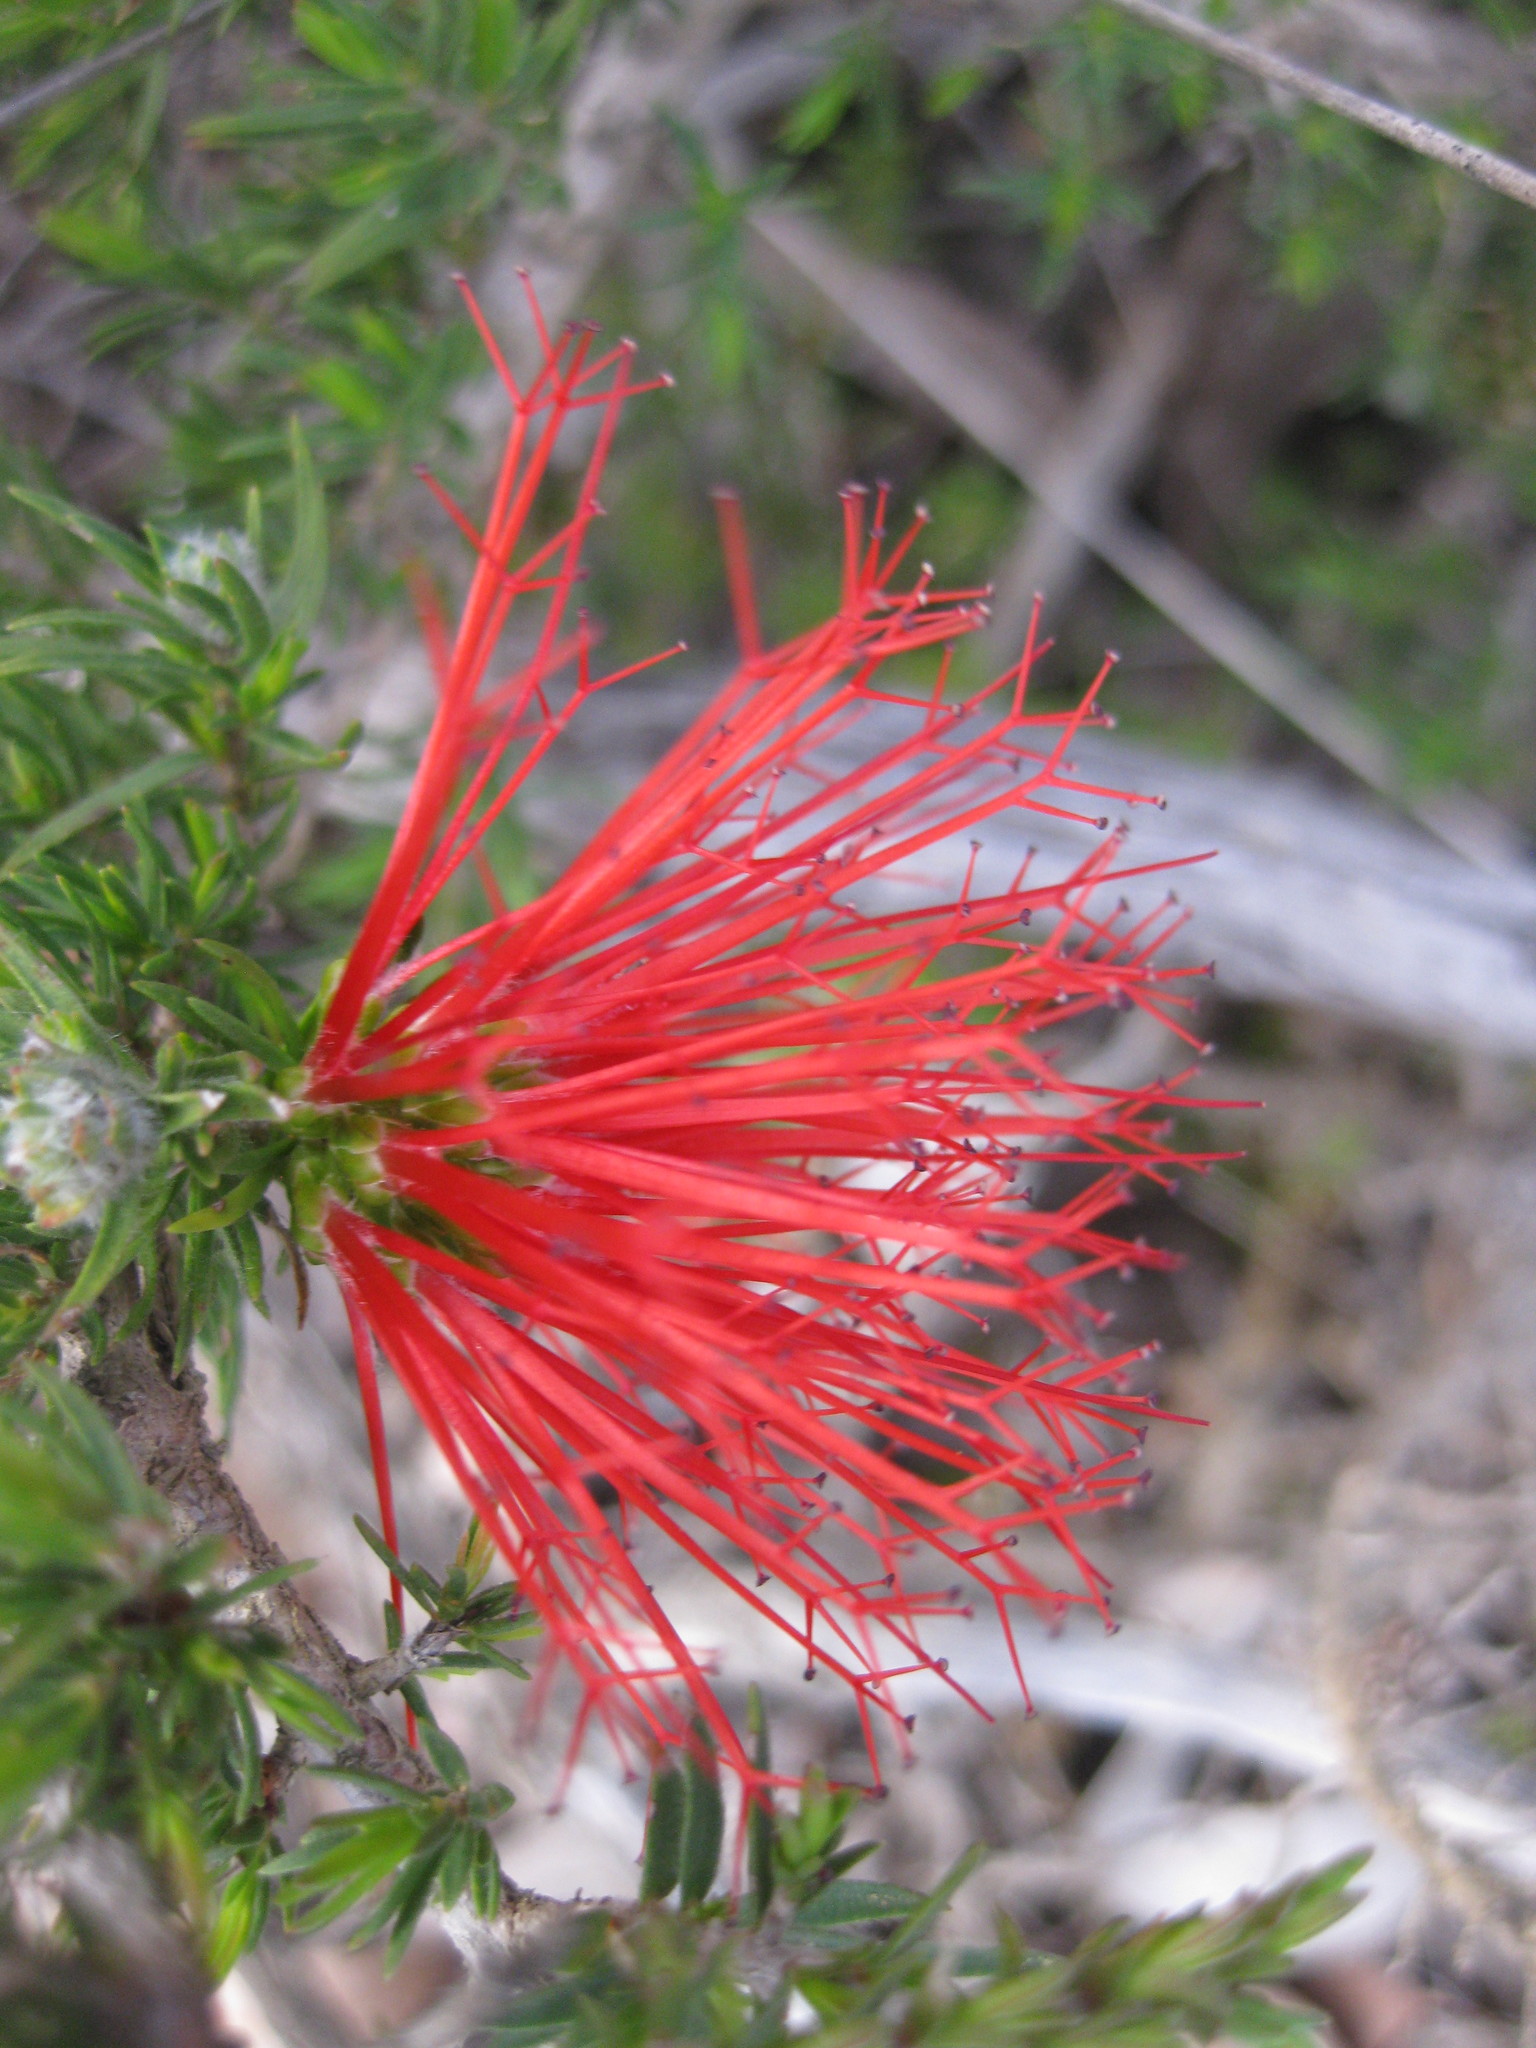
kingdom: Plantae
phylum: Tracheophyta
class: Magnoliopsida
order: Myrtales
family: Myrtaceae
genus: Melaleuca
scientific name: Melaleuca cyrtodonta
